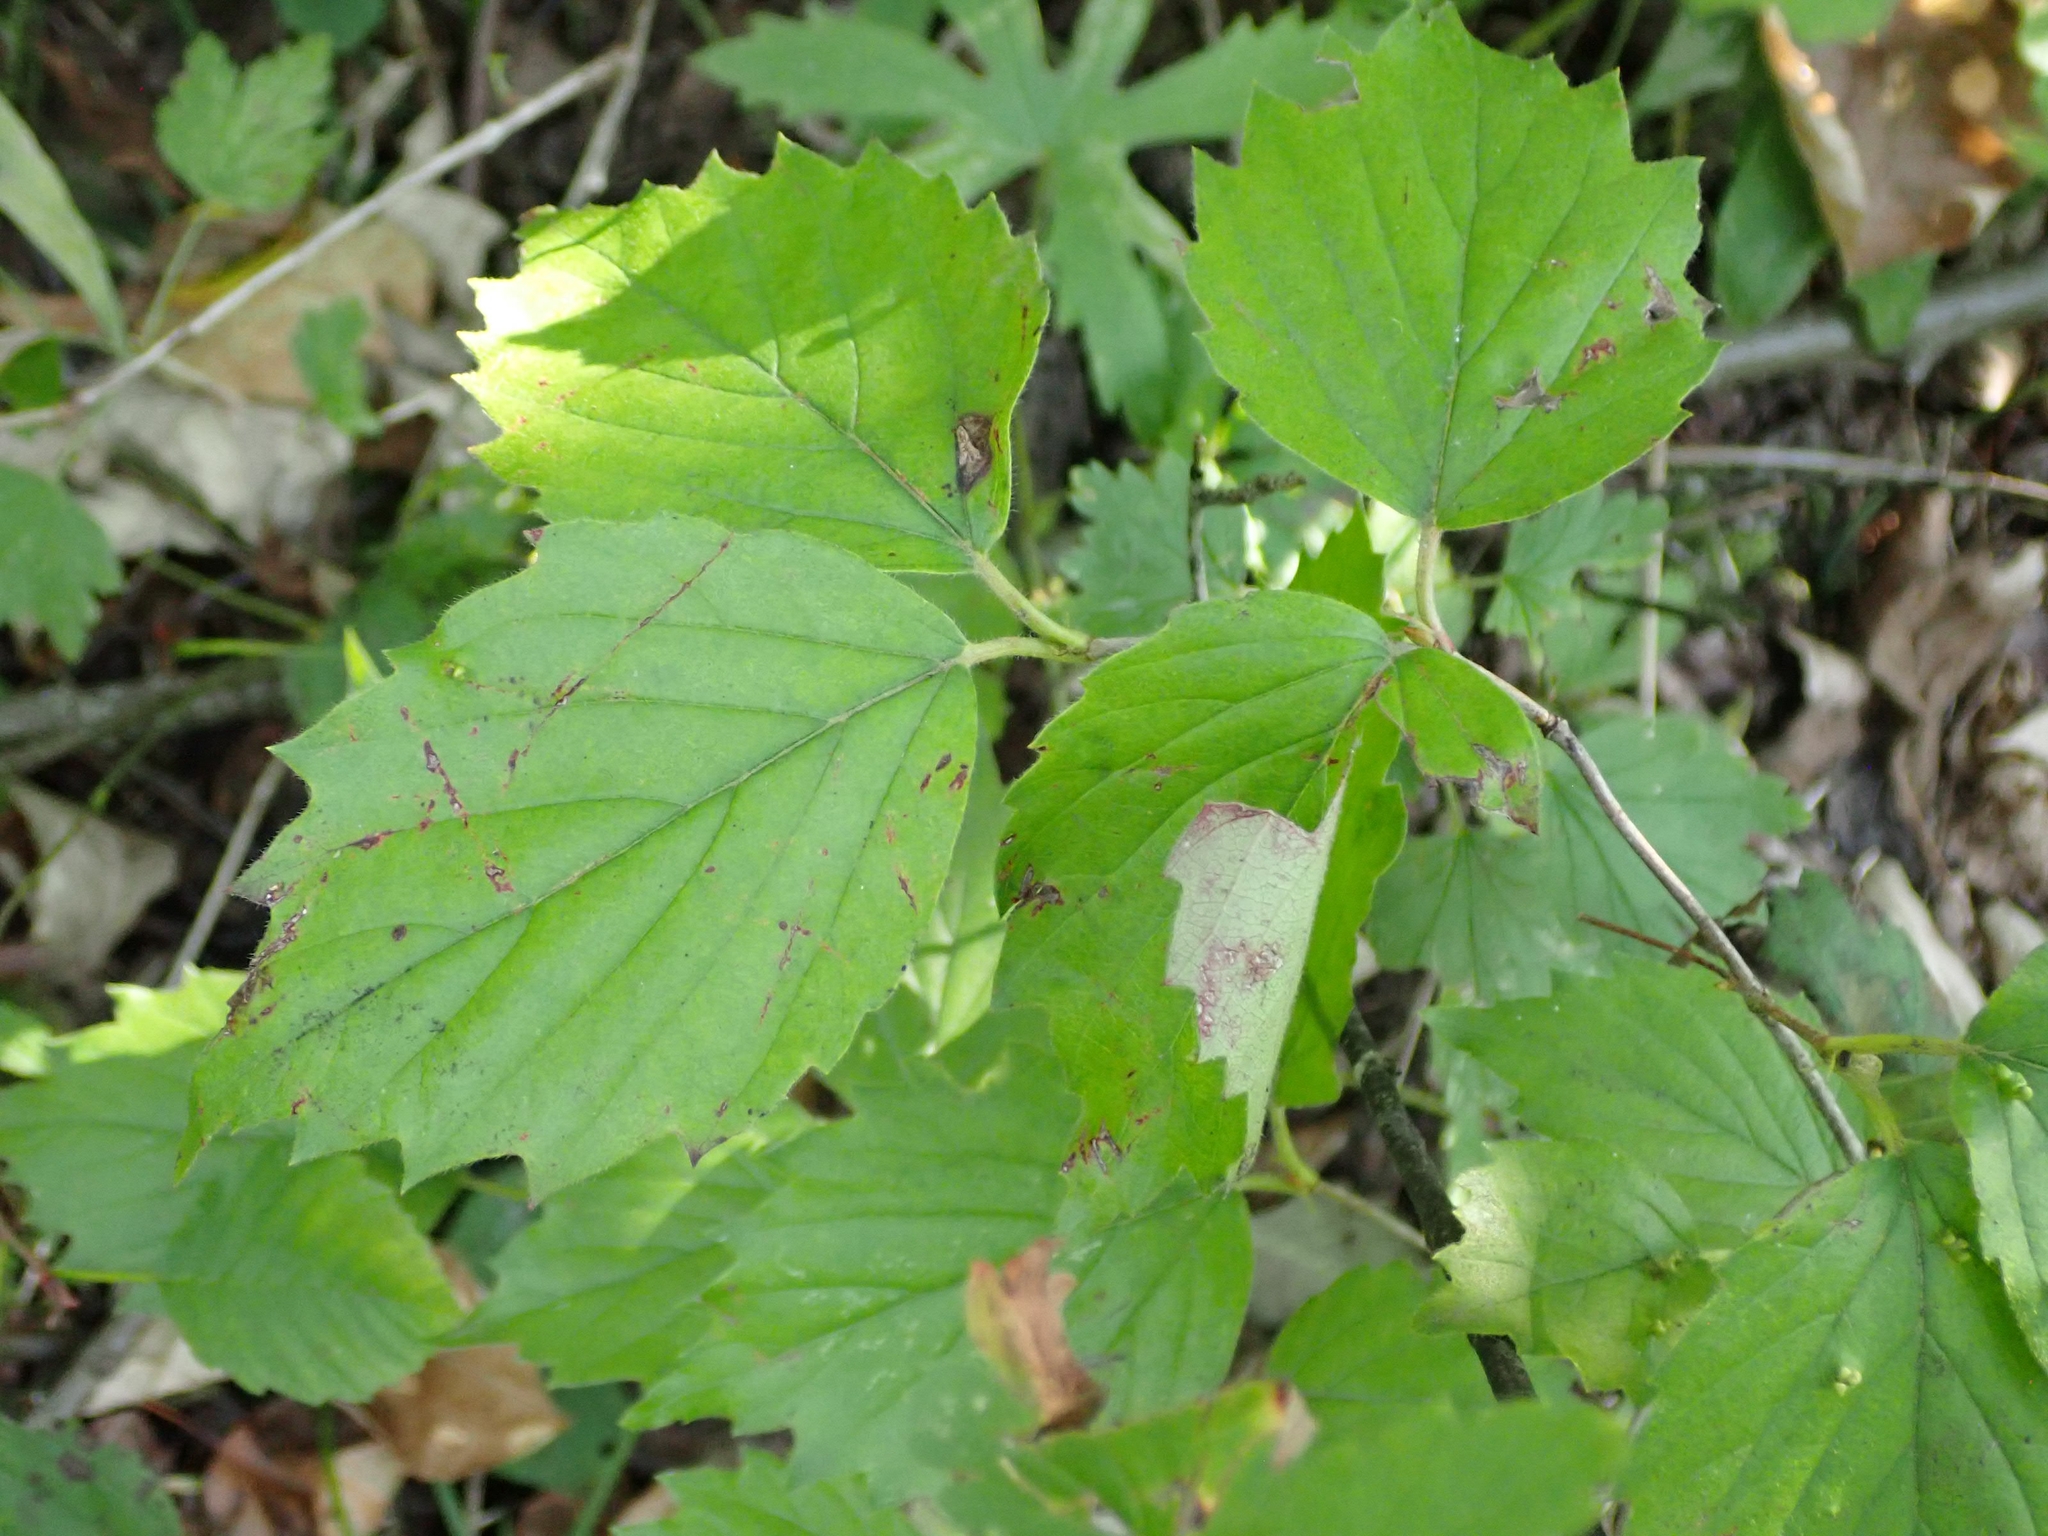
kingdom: Plantae
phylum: Tracheophyta
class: Magnoliopsida
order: Dipsacales
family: Viburnaceae
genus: Viburnum
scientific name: Viburnum rafinesqueanum
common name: Downy arrow-wood
